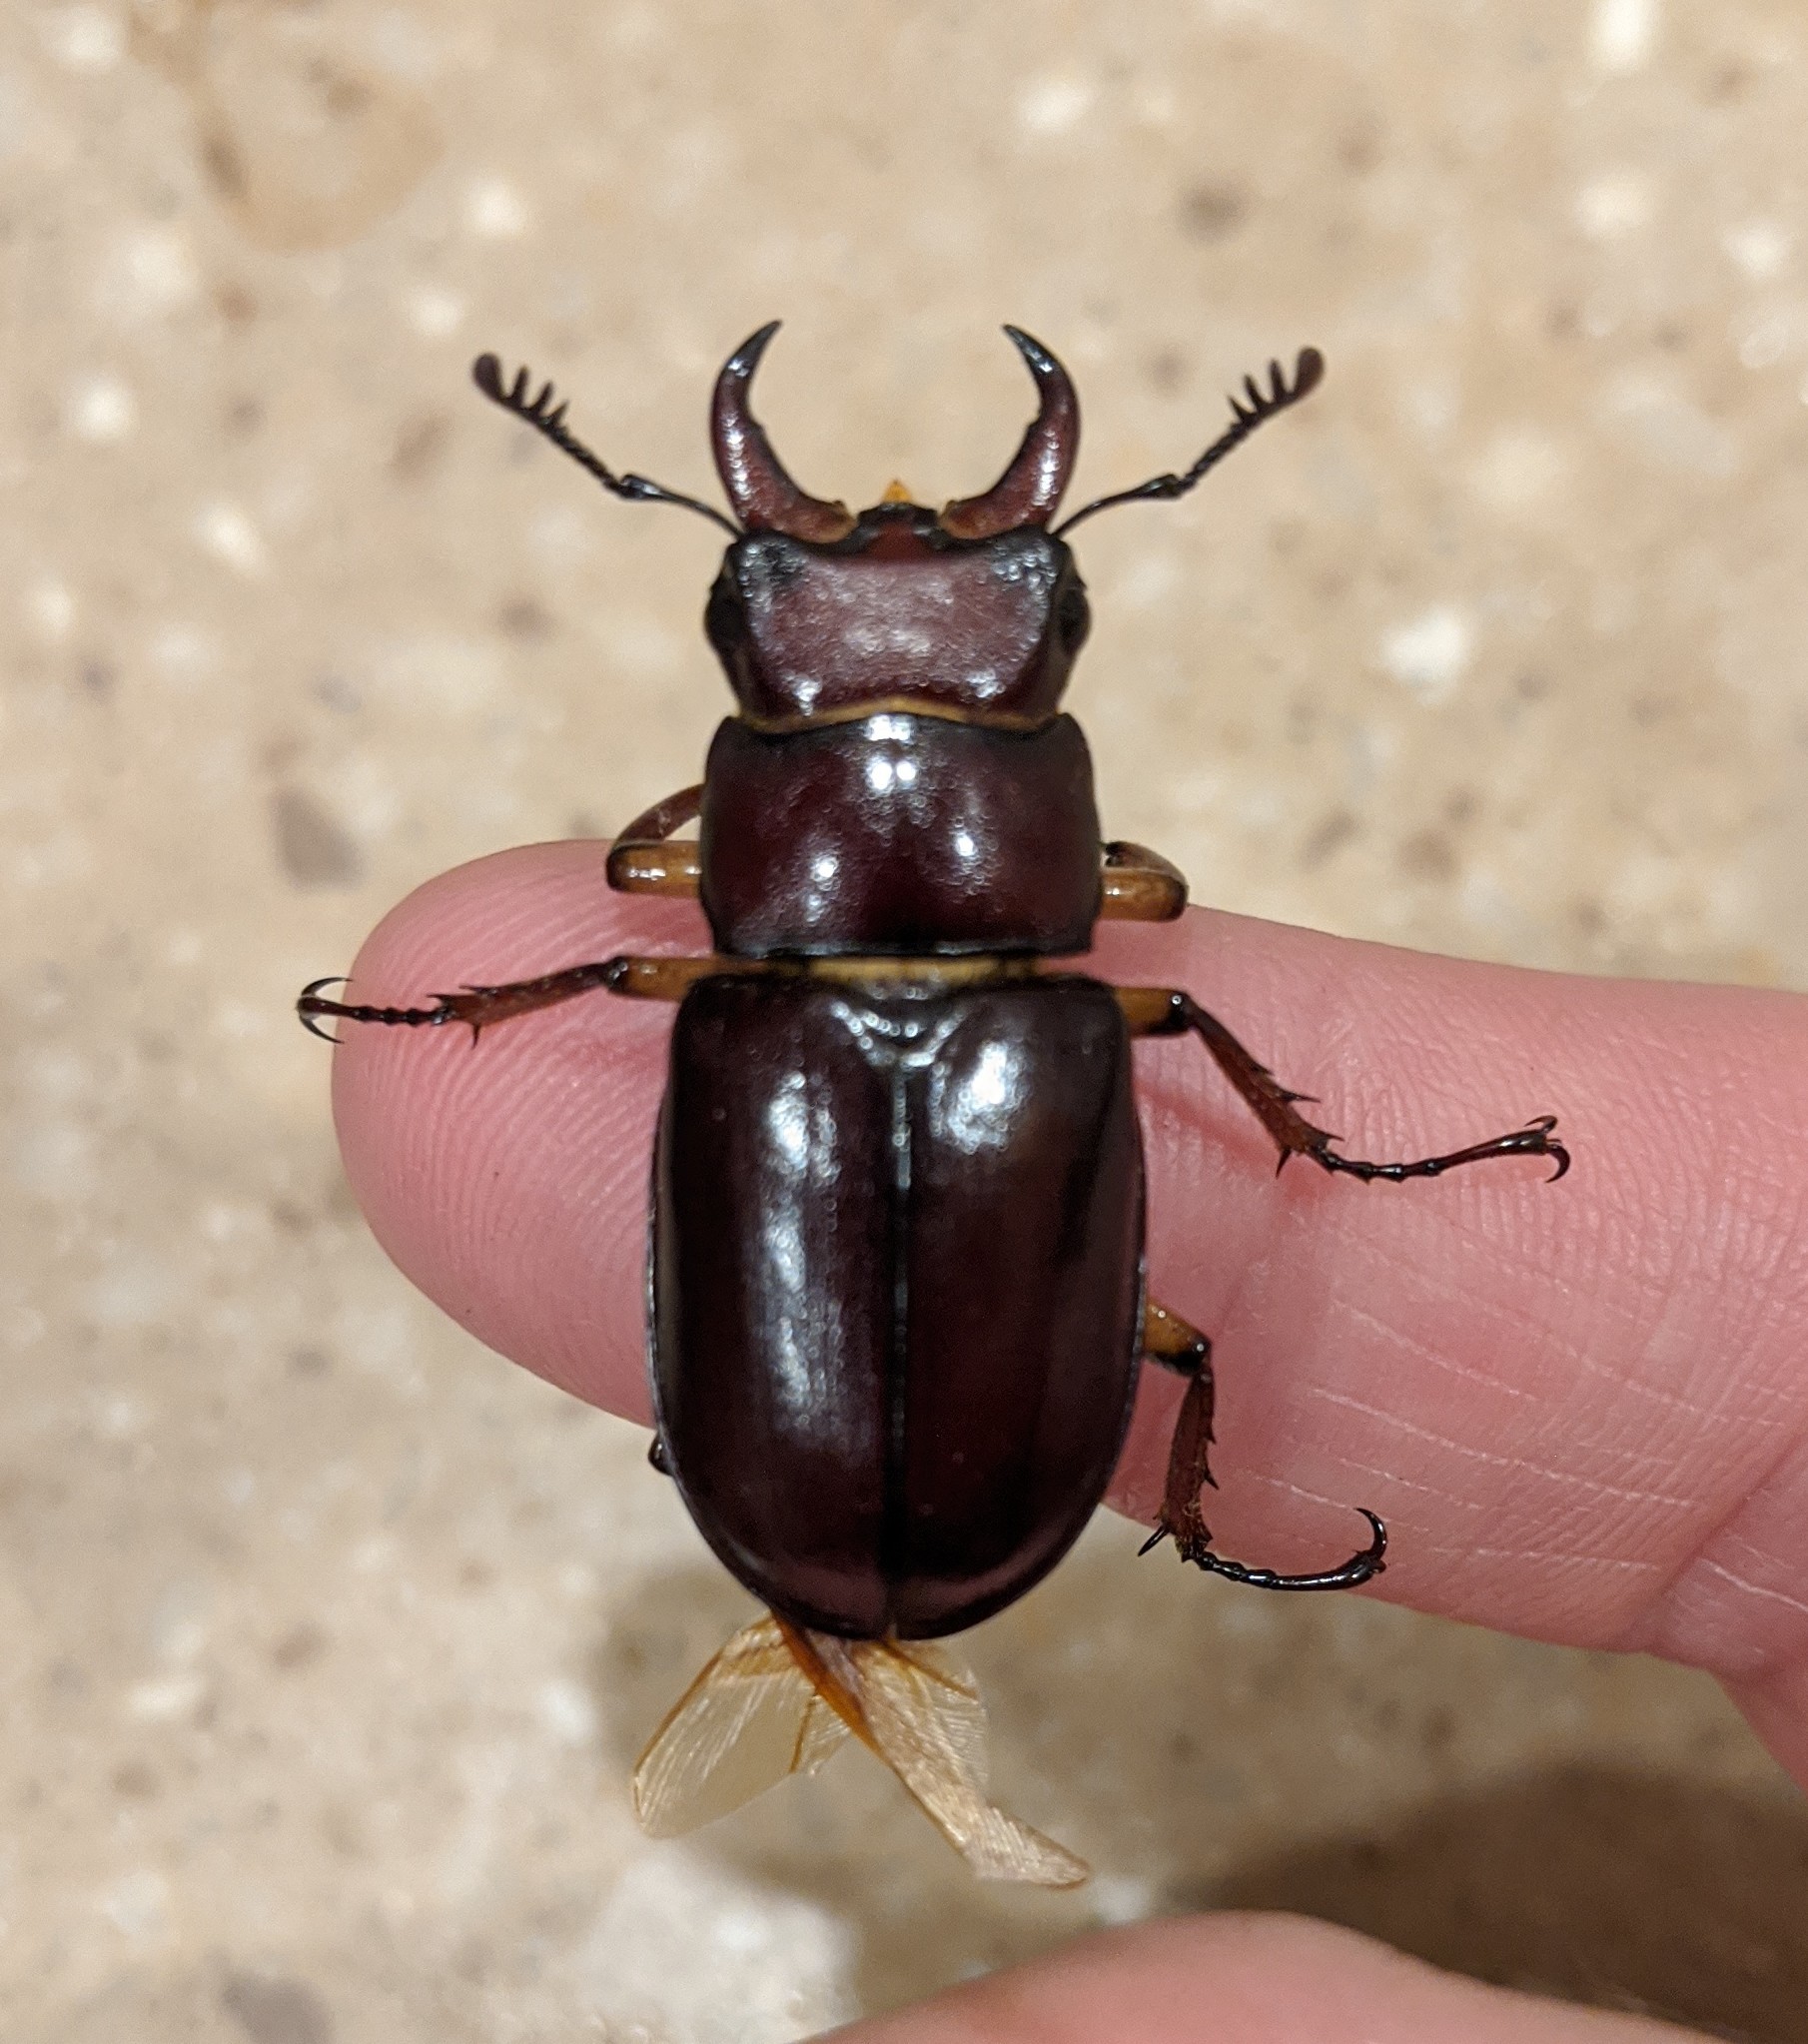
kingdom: Animalia
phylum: Arthropoda
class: Insecta
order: Coleoptera
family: Lucanidae
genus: Lucanus
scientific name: Lucanus capreolus
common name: Stag beetle
